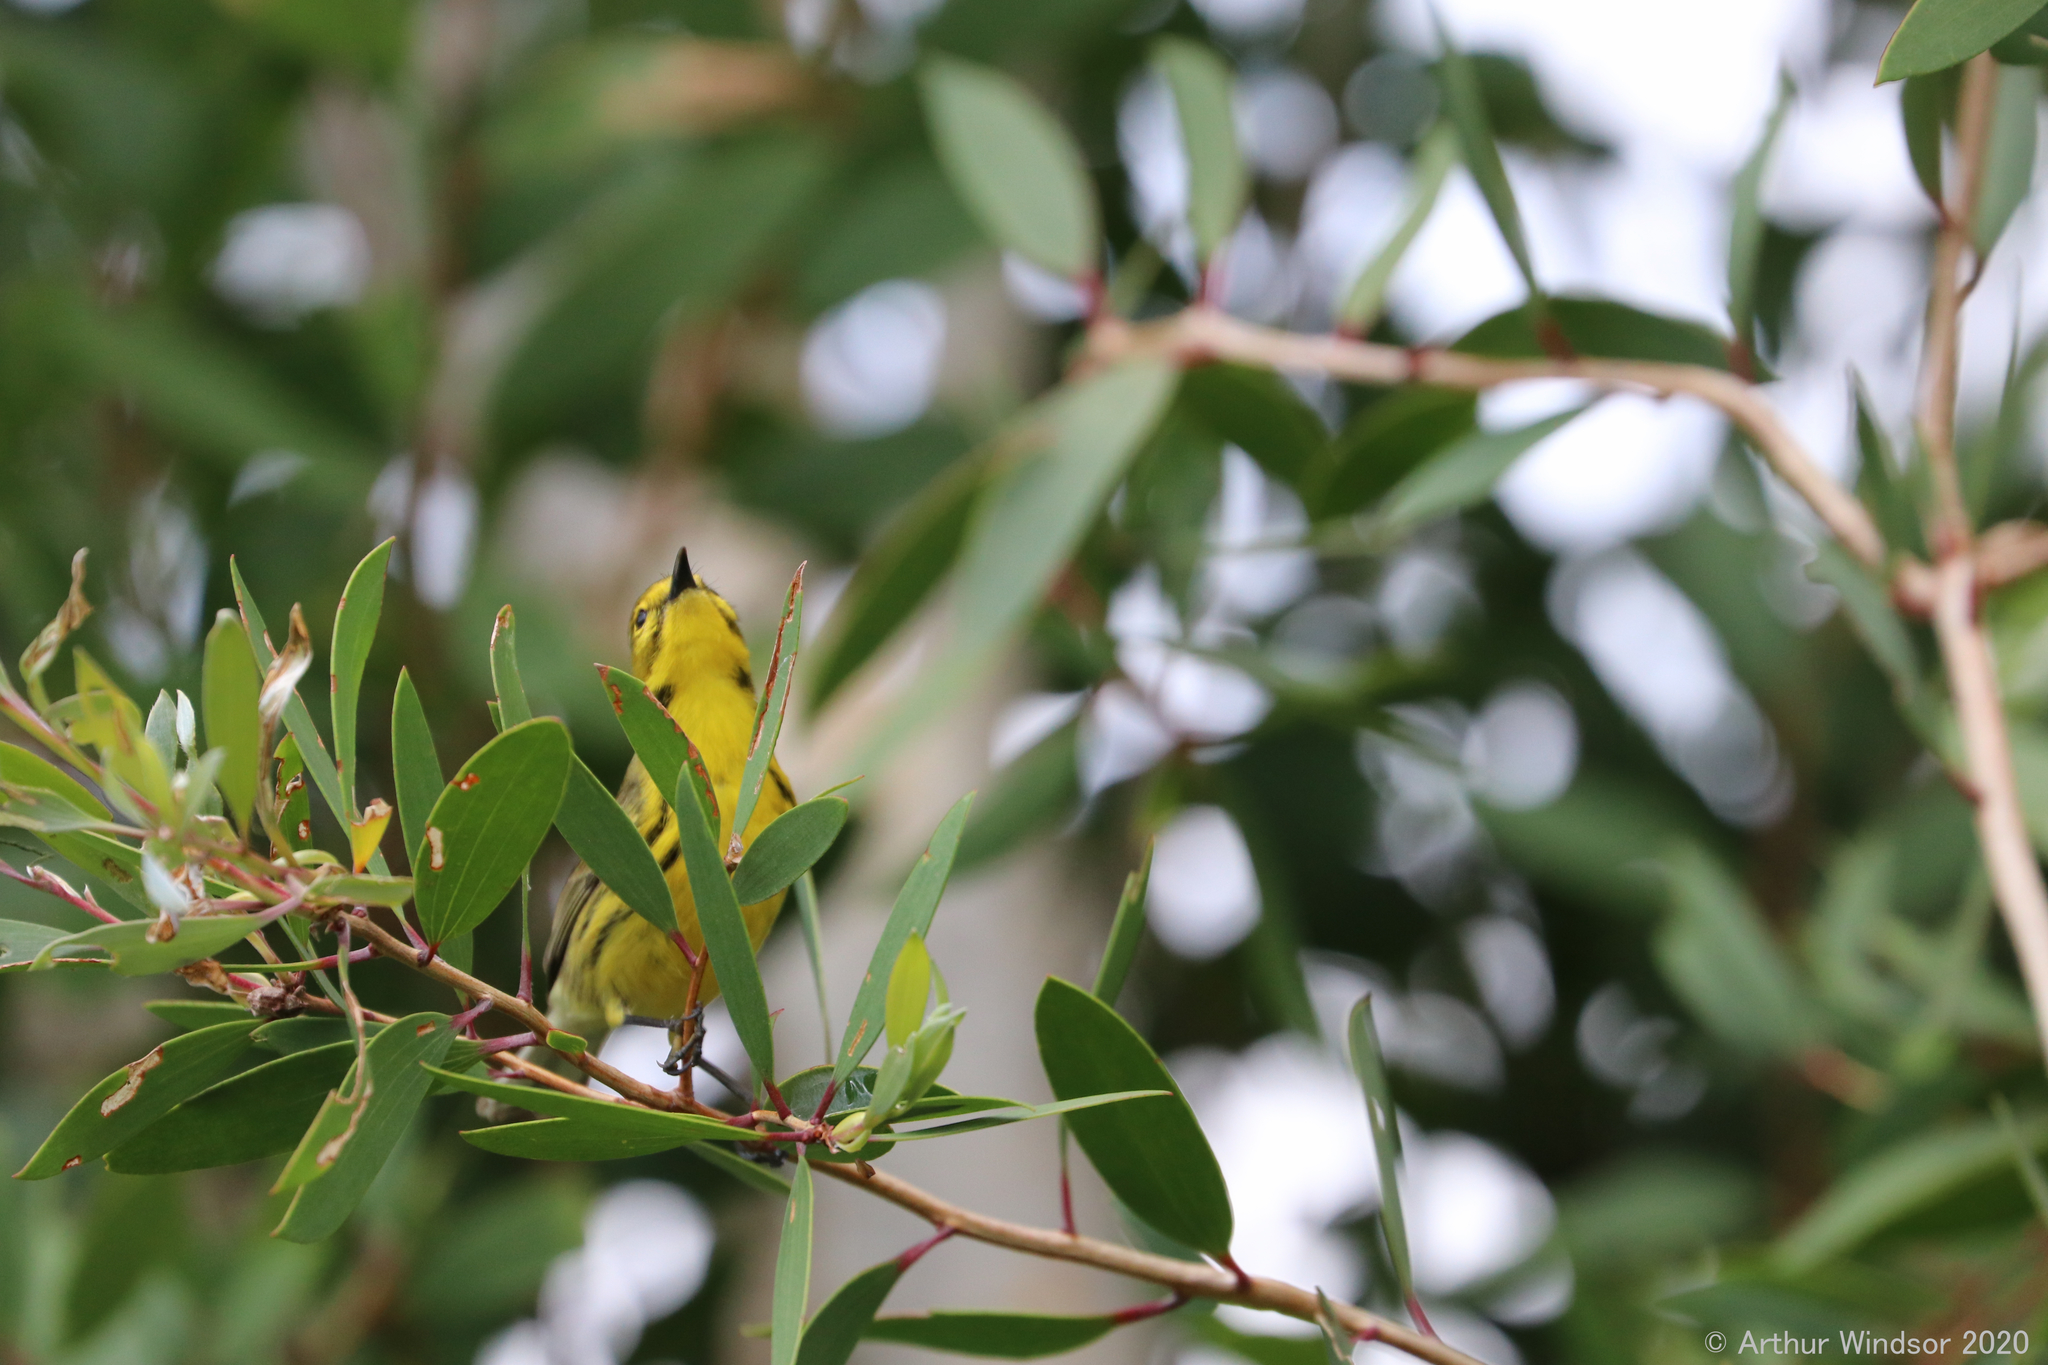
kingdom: Animalia
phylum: Chordata
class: Aves
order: Passeriformes
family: Parulidae
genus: Setophaga
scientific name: Setophaga discolor
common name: Prairie warbler
